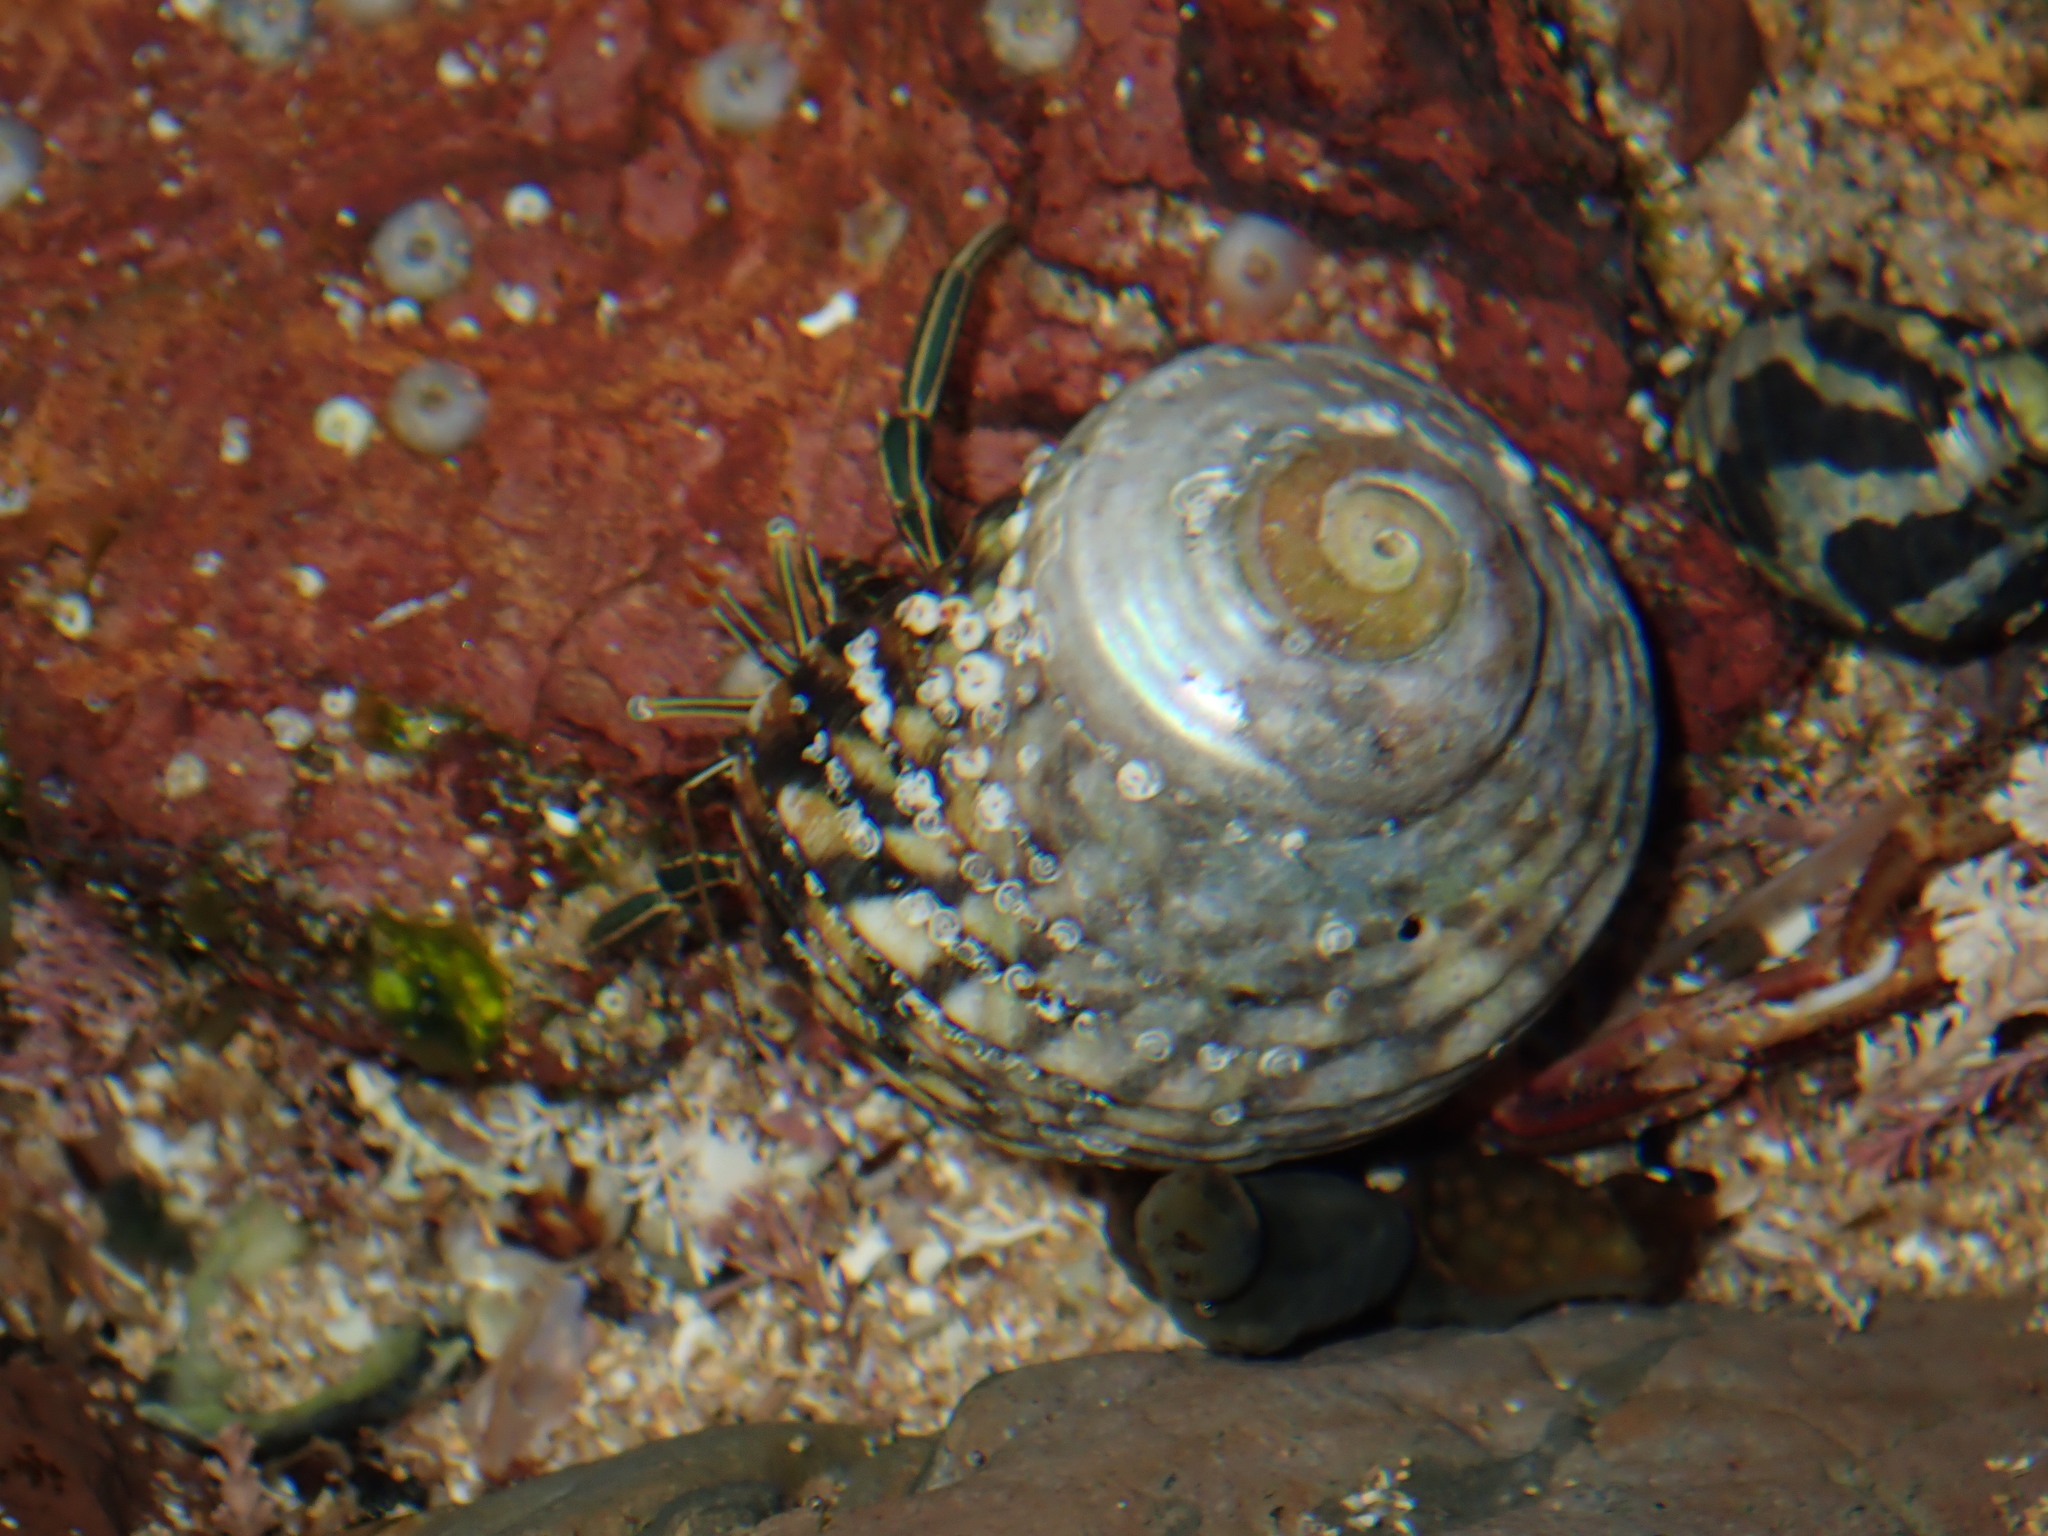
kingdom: Animalia
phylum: Arthropoda
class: Malacostraca
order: Decapoda
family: Diogenidae
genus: Clibanarius
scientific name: Clibanarius taeniatus
